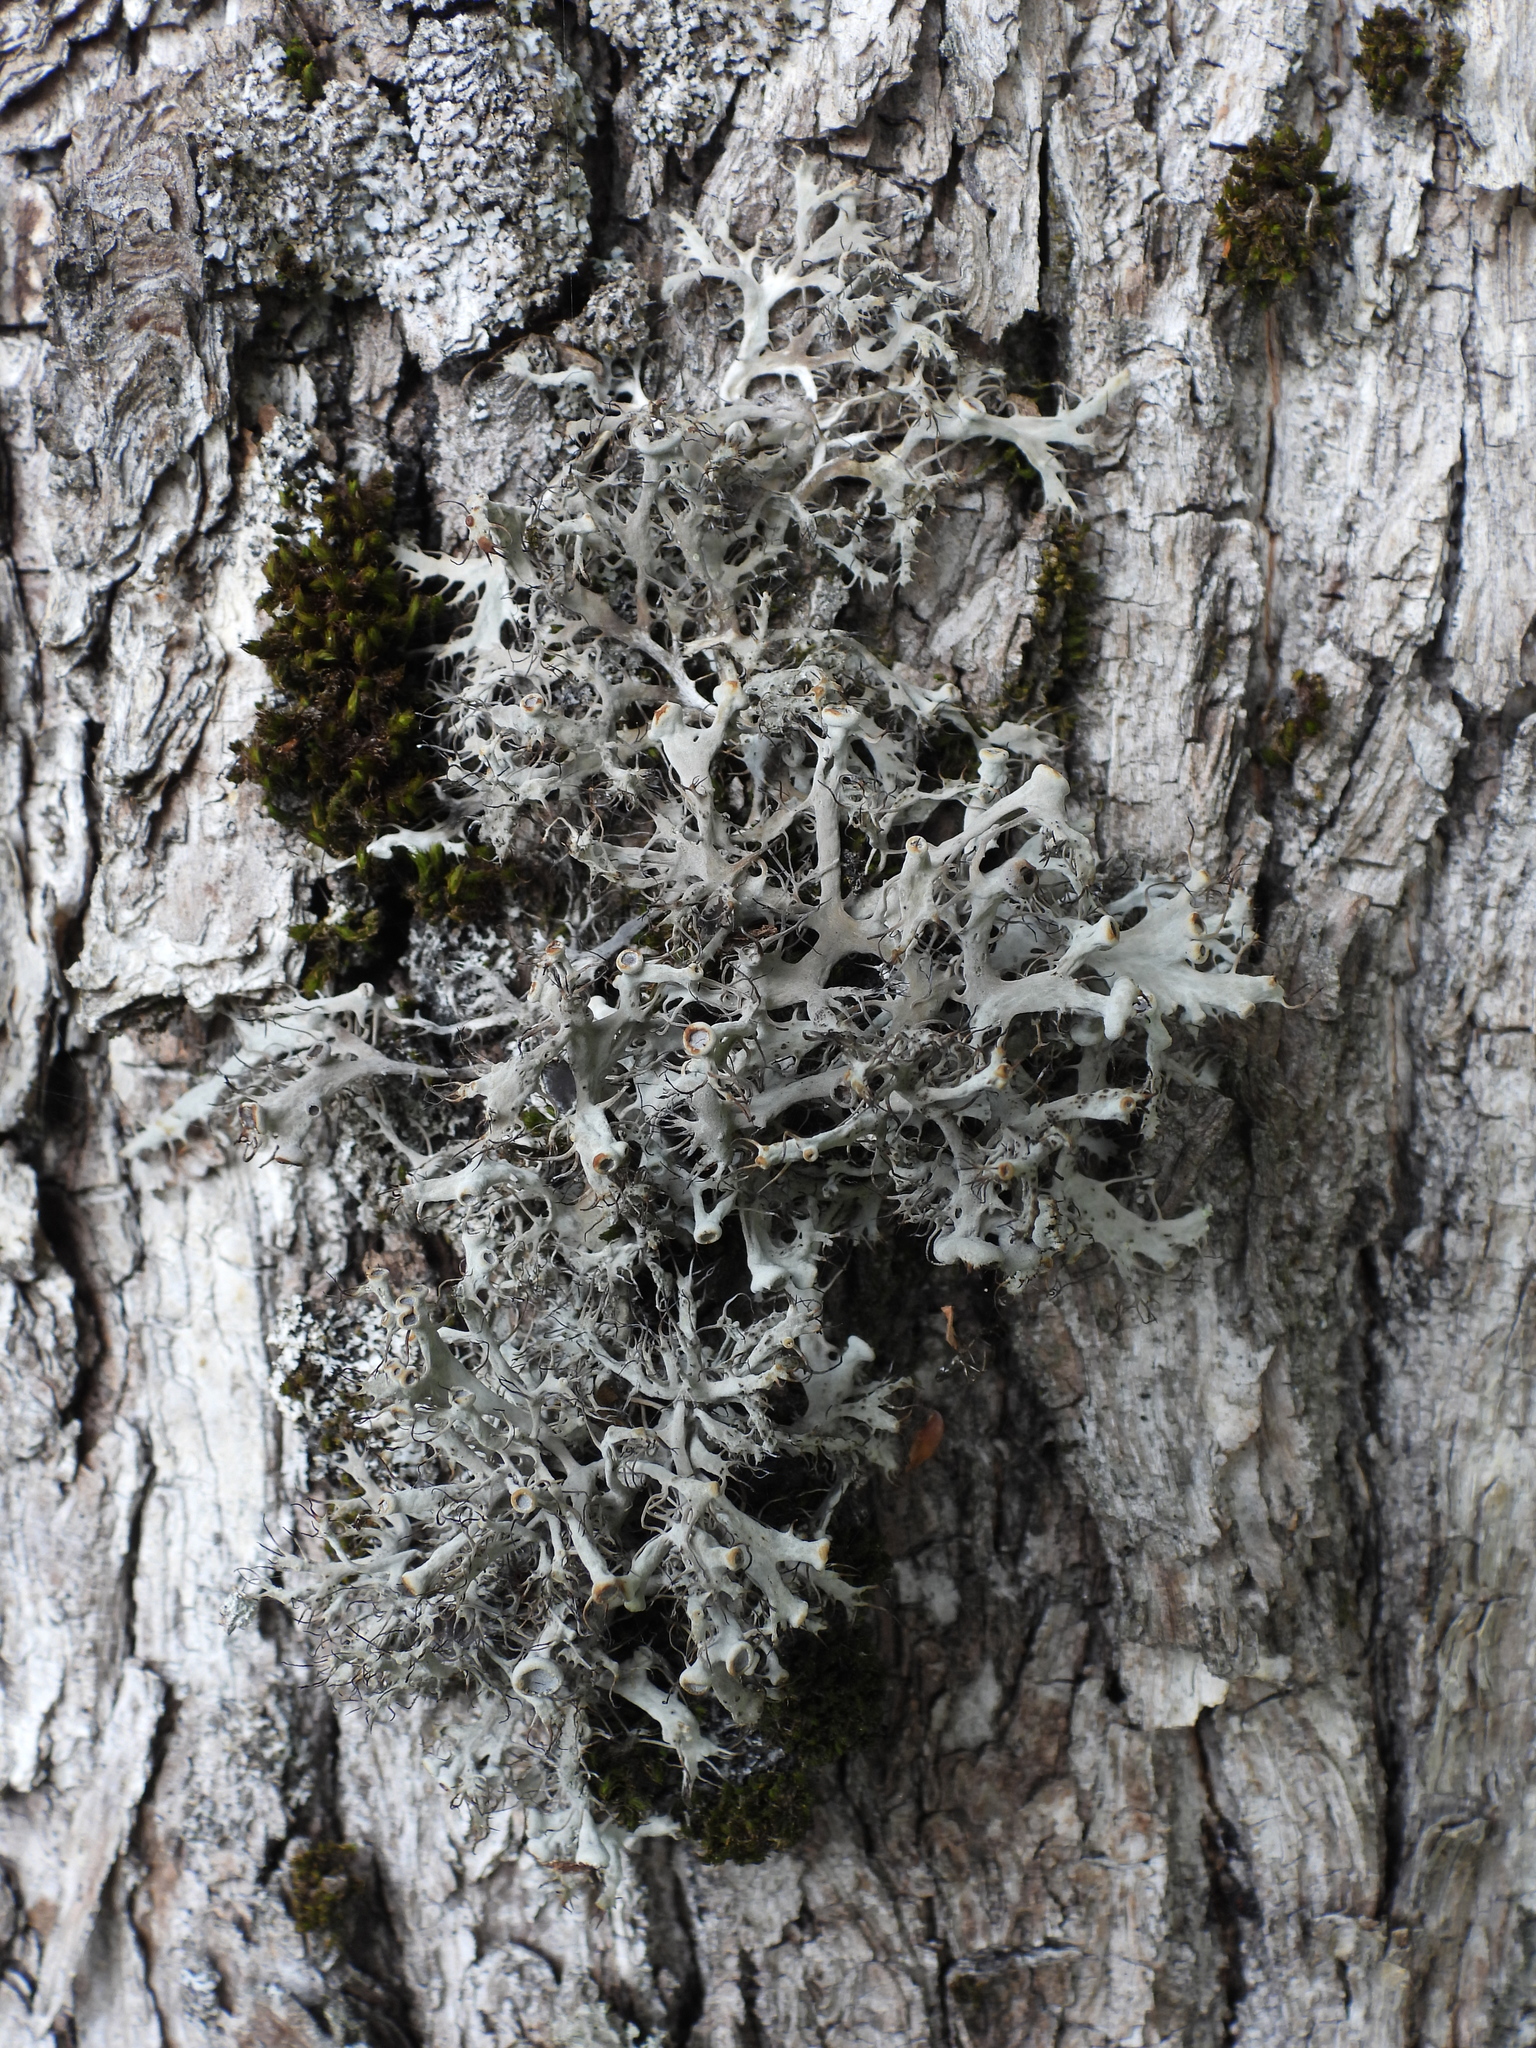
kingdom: Fungi
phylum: Ascomycota
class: Lecanoromycetes
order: Caliciales
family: Physciaceae
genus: Anaptychia
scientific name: Anaptychia ciliaris
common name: Great ciliated lichen
